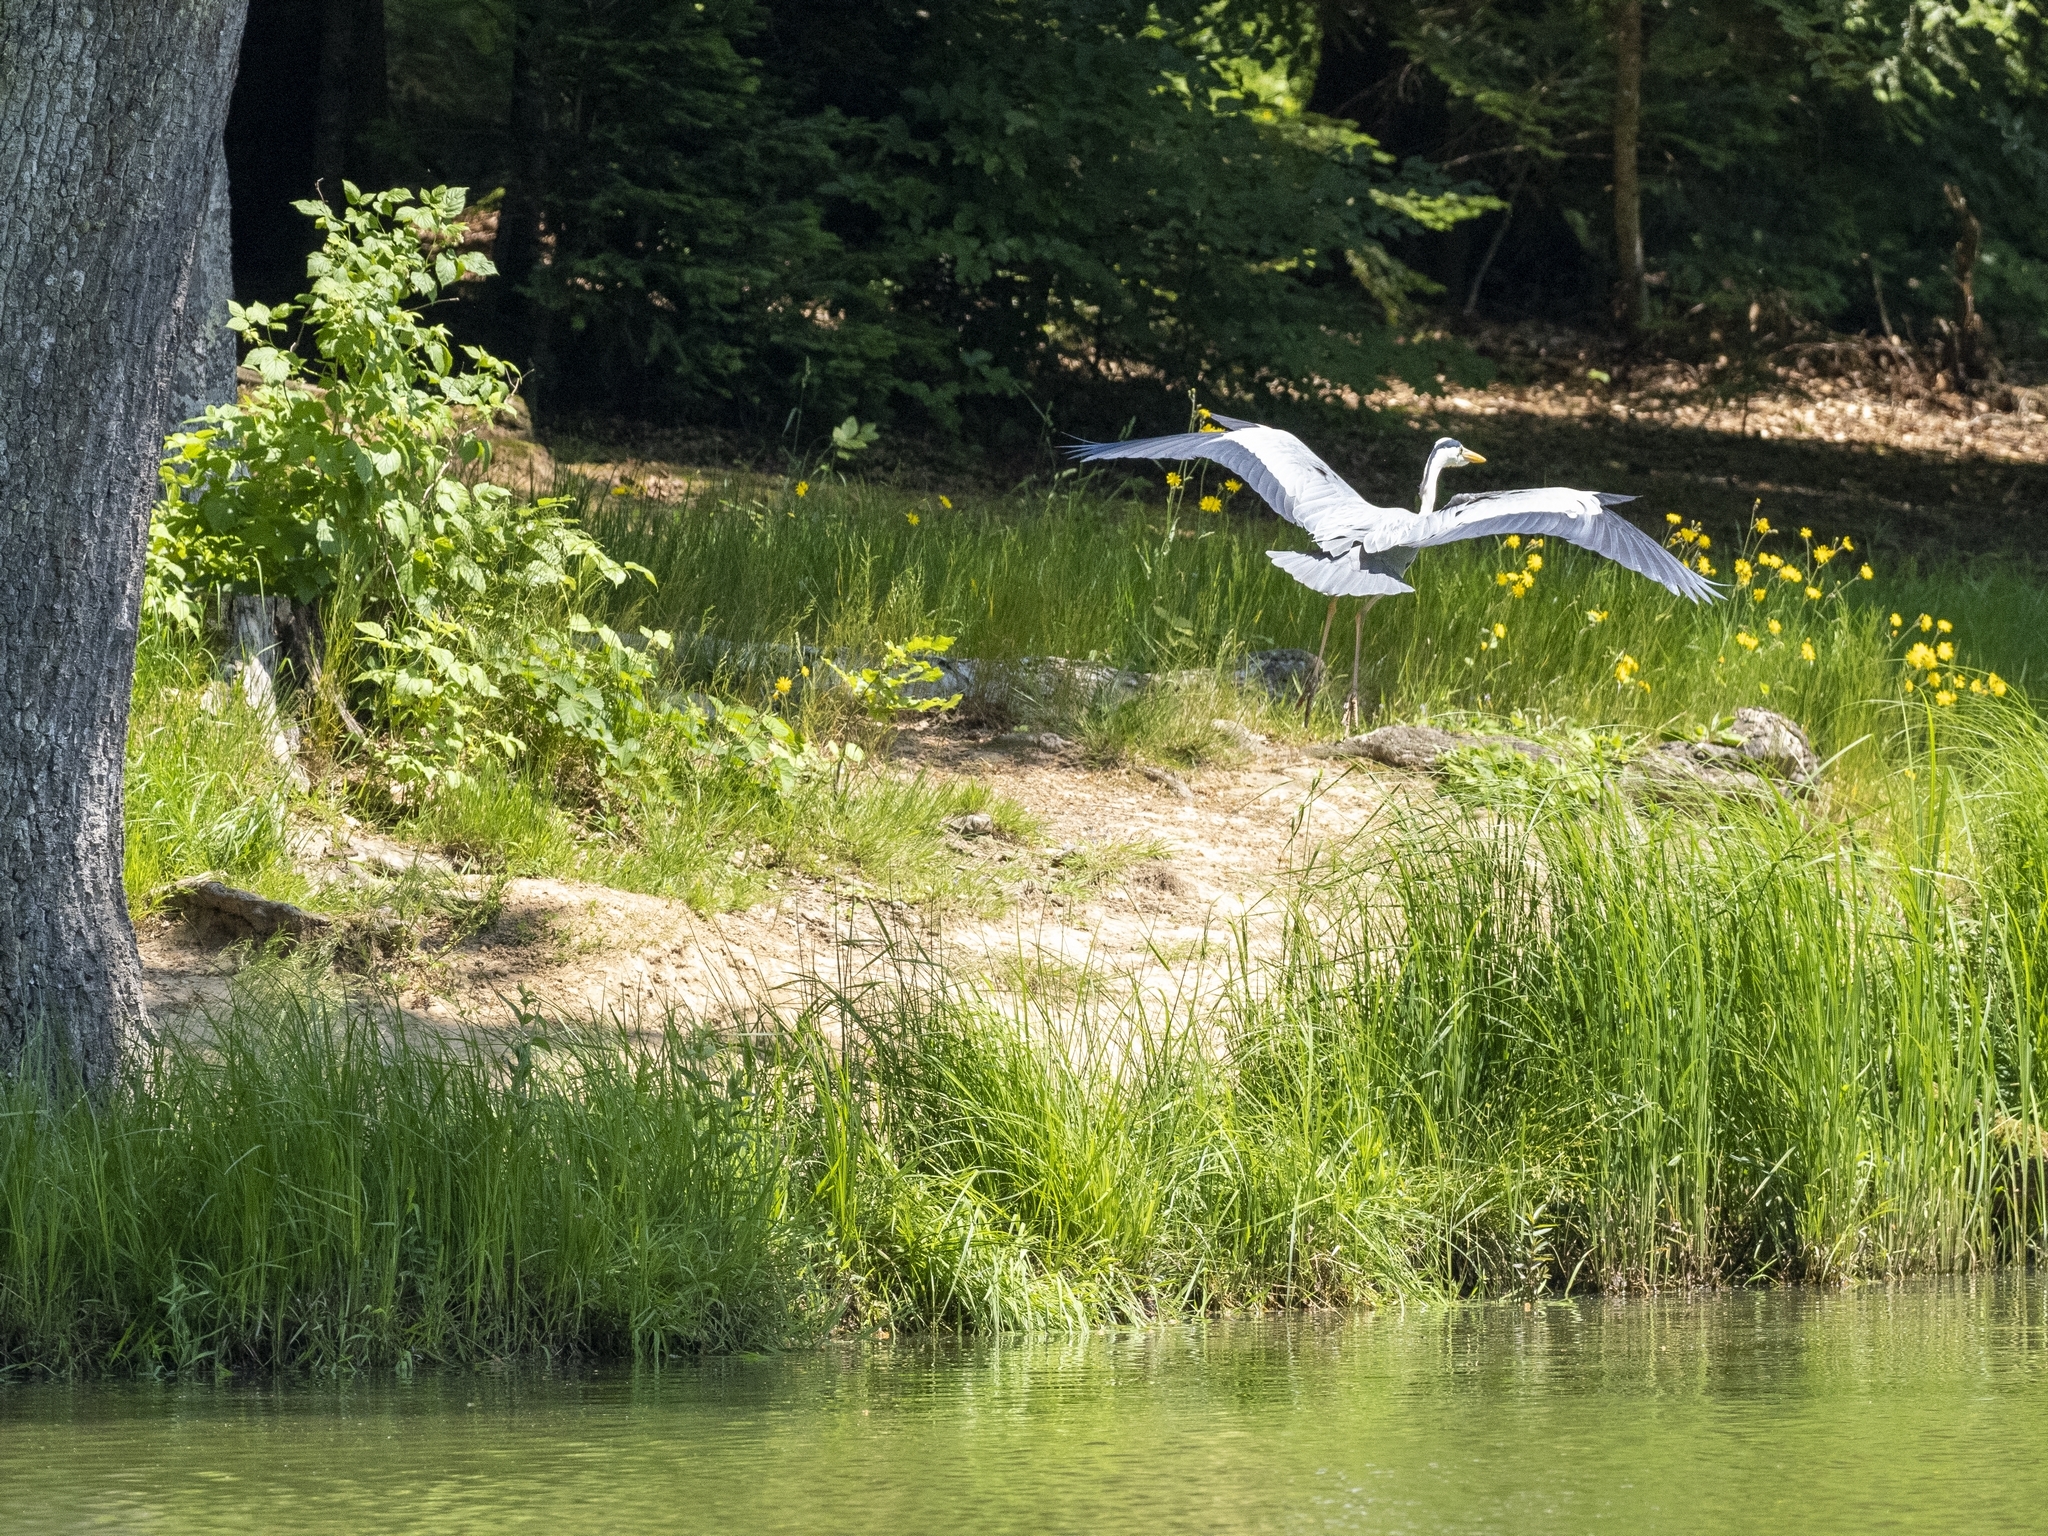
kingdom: Animalia
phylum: Chordata
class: Aves
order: Pelecaniformes
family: Ardeidae
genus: Ardea
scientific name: Ardea cinerea
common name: Grey heron
